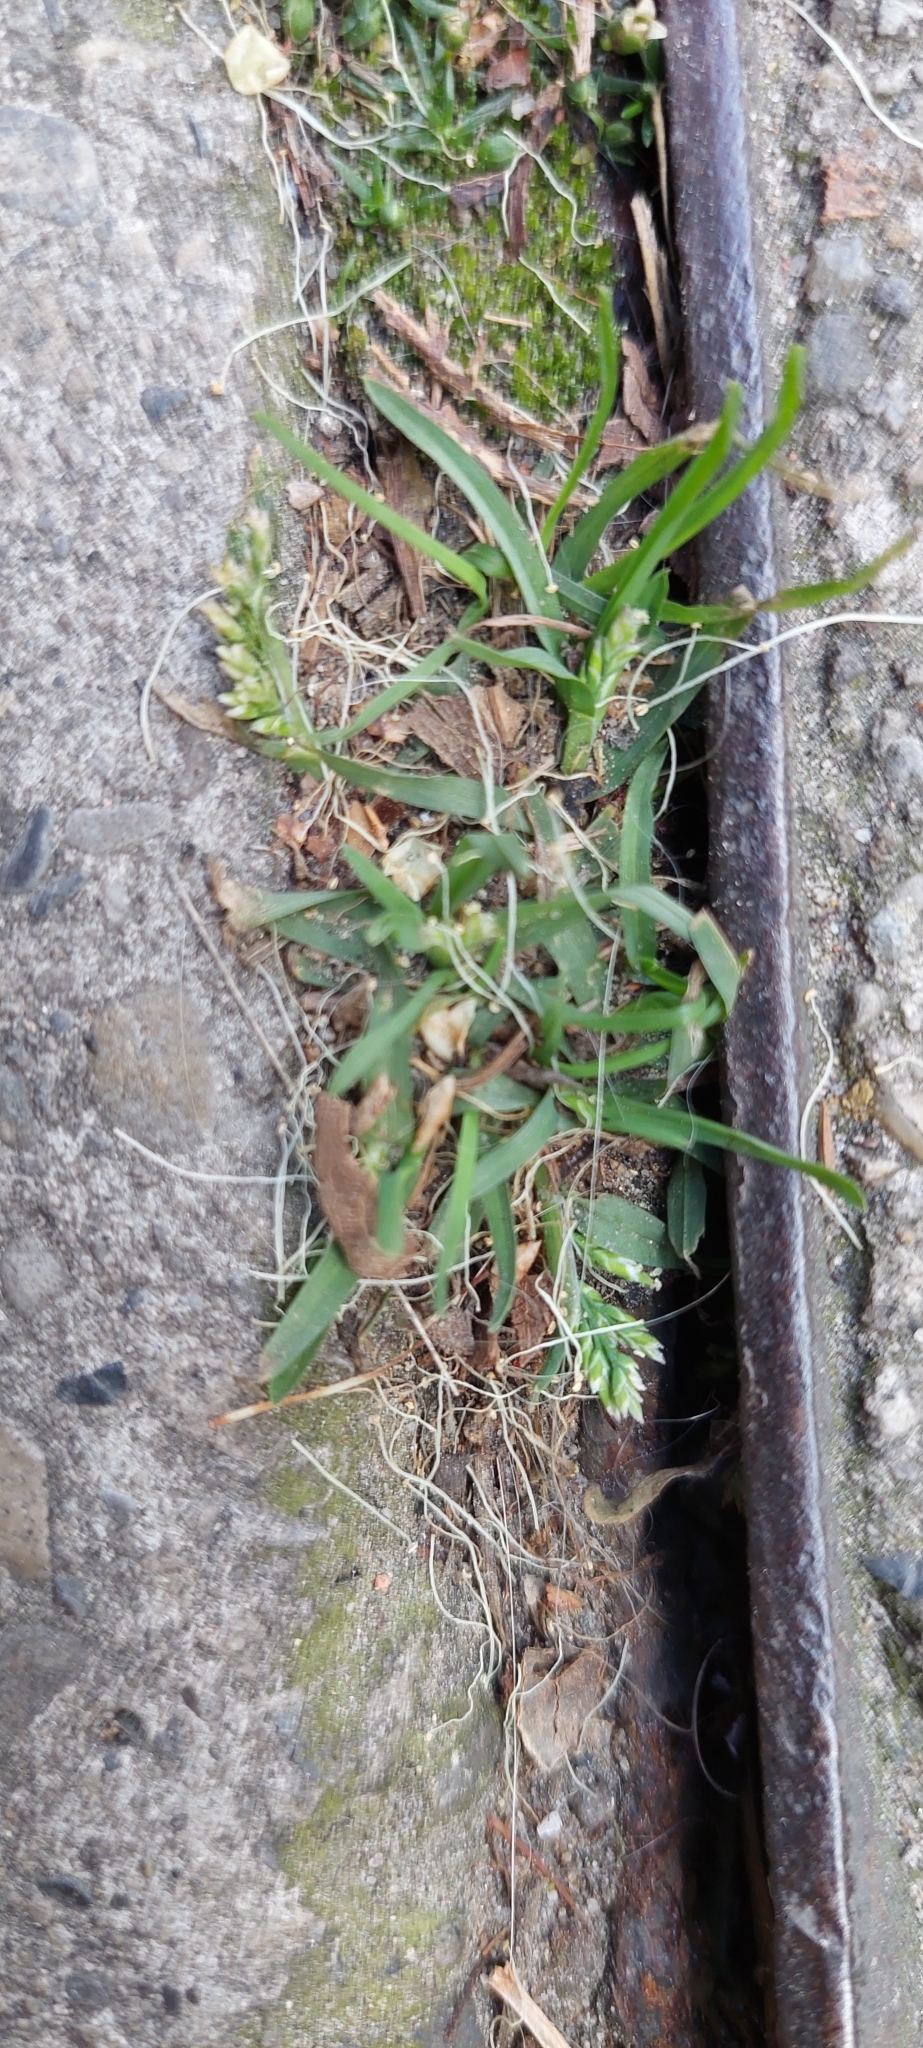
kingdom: Plantae
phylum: Tracheophyta
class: Liliopsida
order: Poales
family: Poaceae
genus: Poa
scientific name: Poa annua
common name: Annual bluegrass
